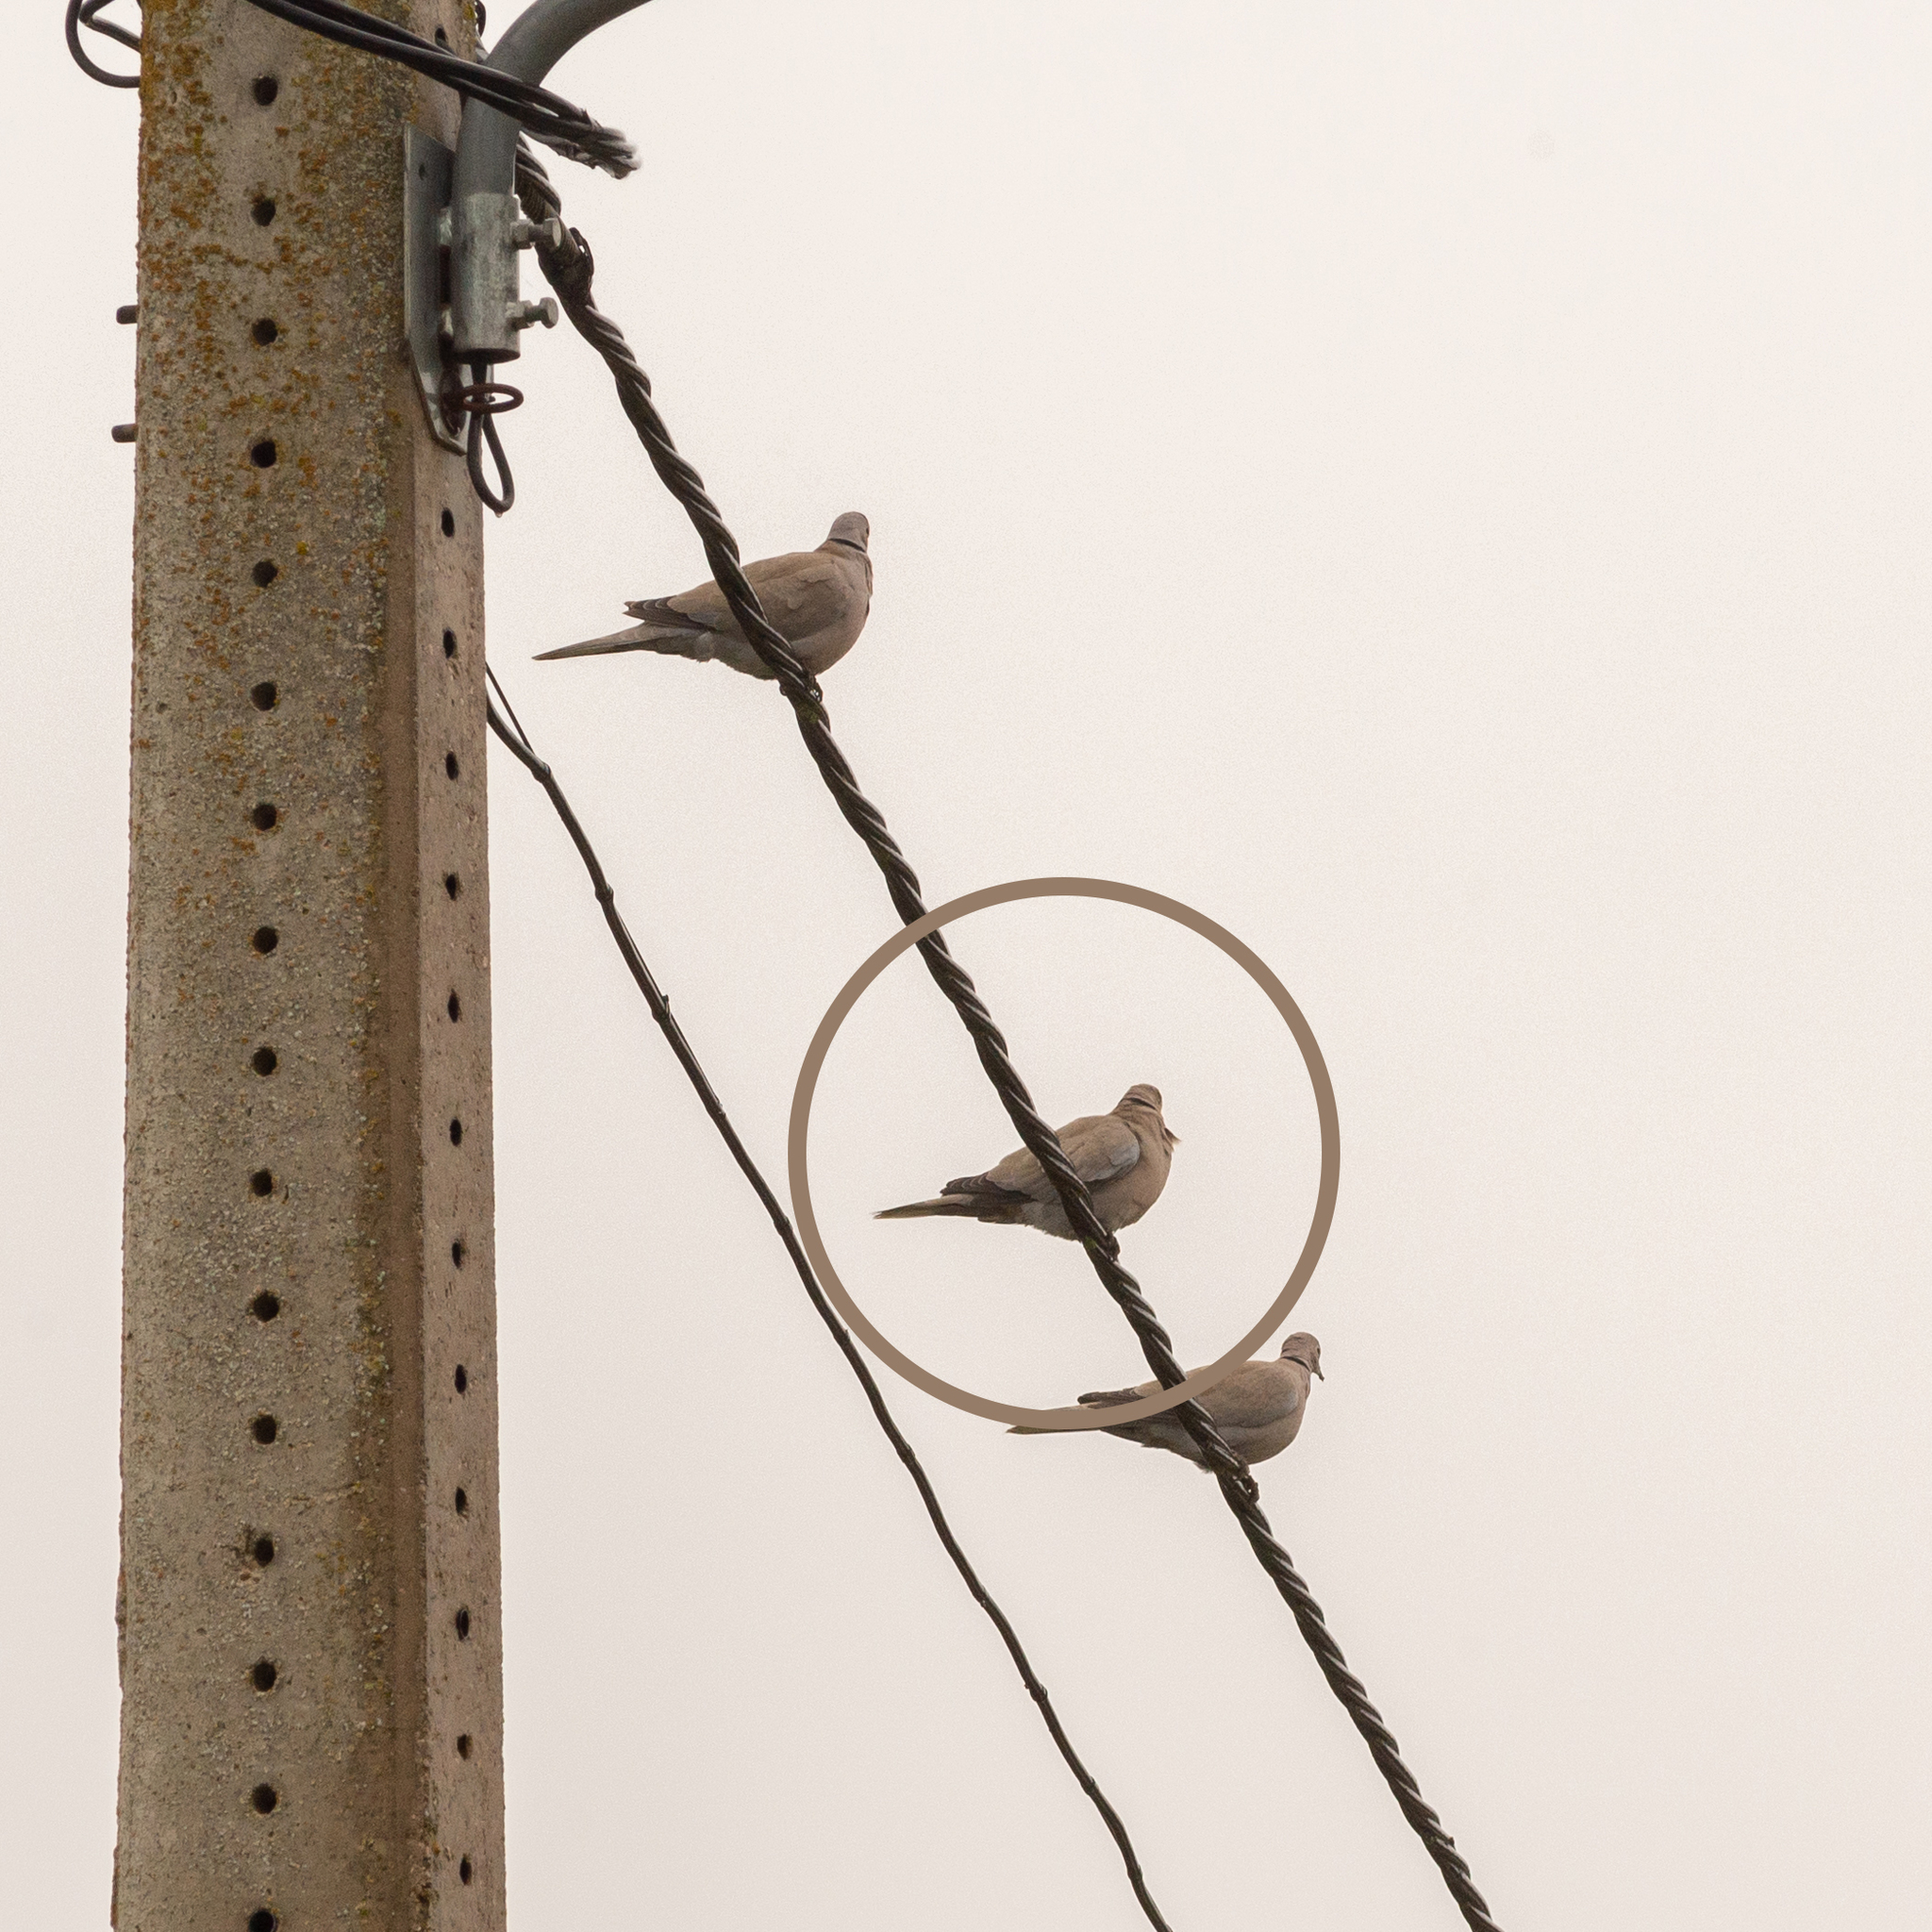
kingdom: Animalia
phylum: Chordata
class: Aves
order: Columbiformes
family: Columbidae
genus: Streptopelia
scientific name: Streptopelia decaocto
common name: Eurasian collared dove
